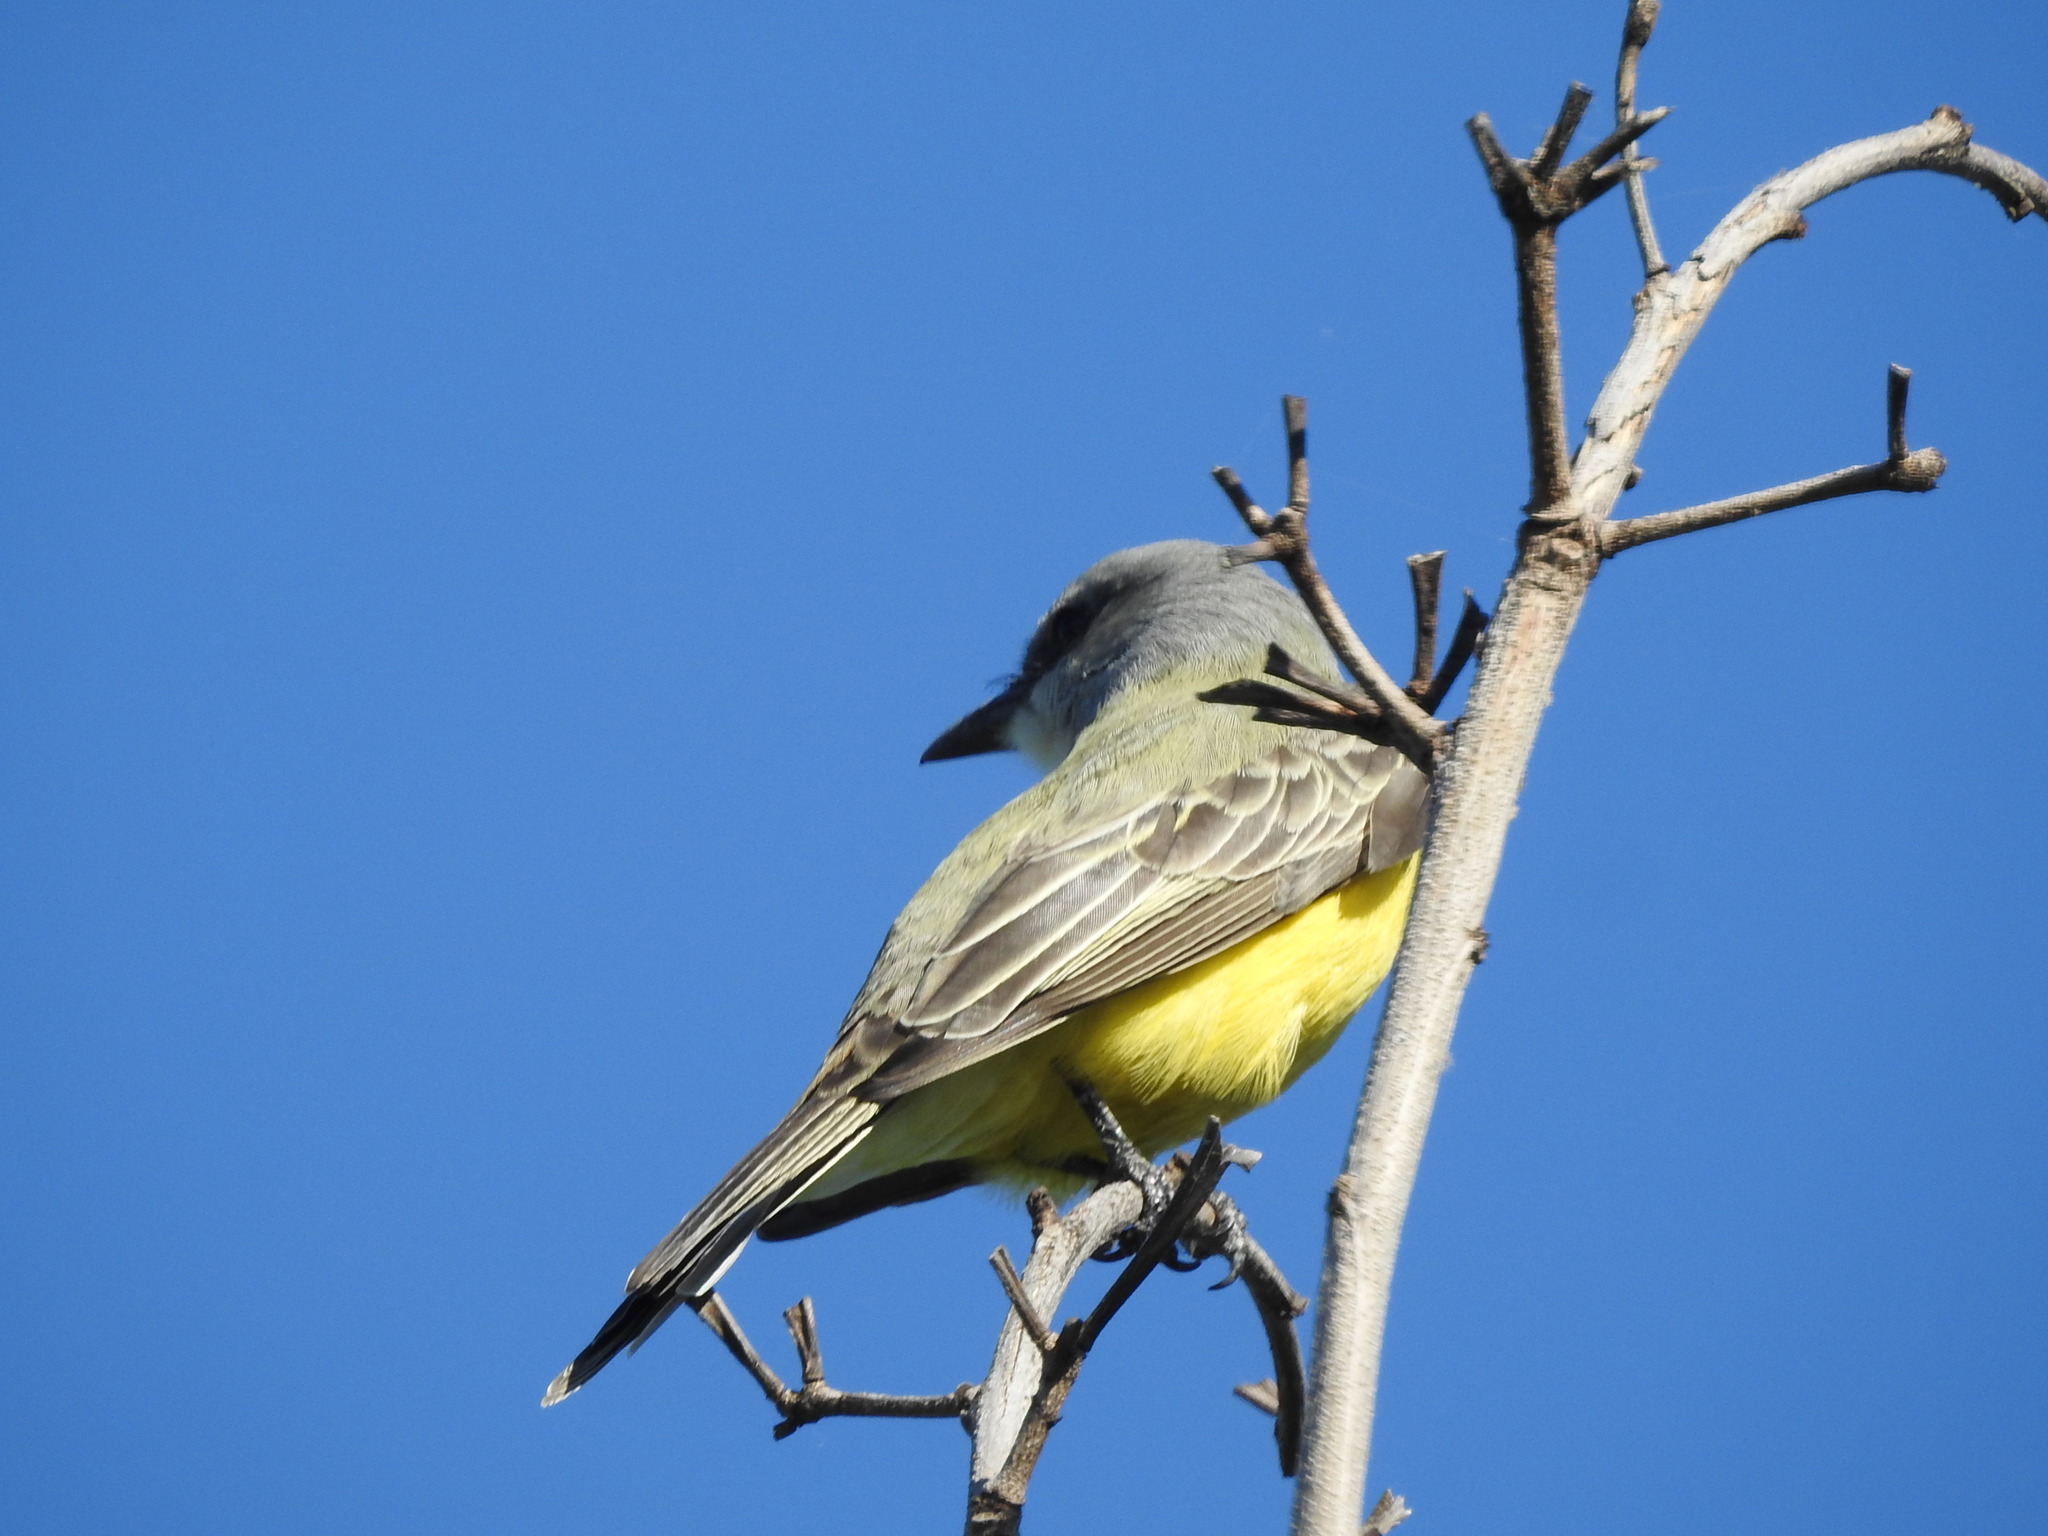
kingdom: Animalia
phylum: Chordata
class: Aves
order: Passeriformes
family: Tyrannidae
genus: Tyrannus
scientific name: Tyrannus melancholicus
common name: Tropical kingbird
